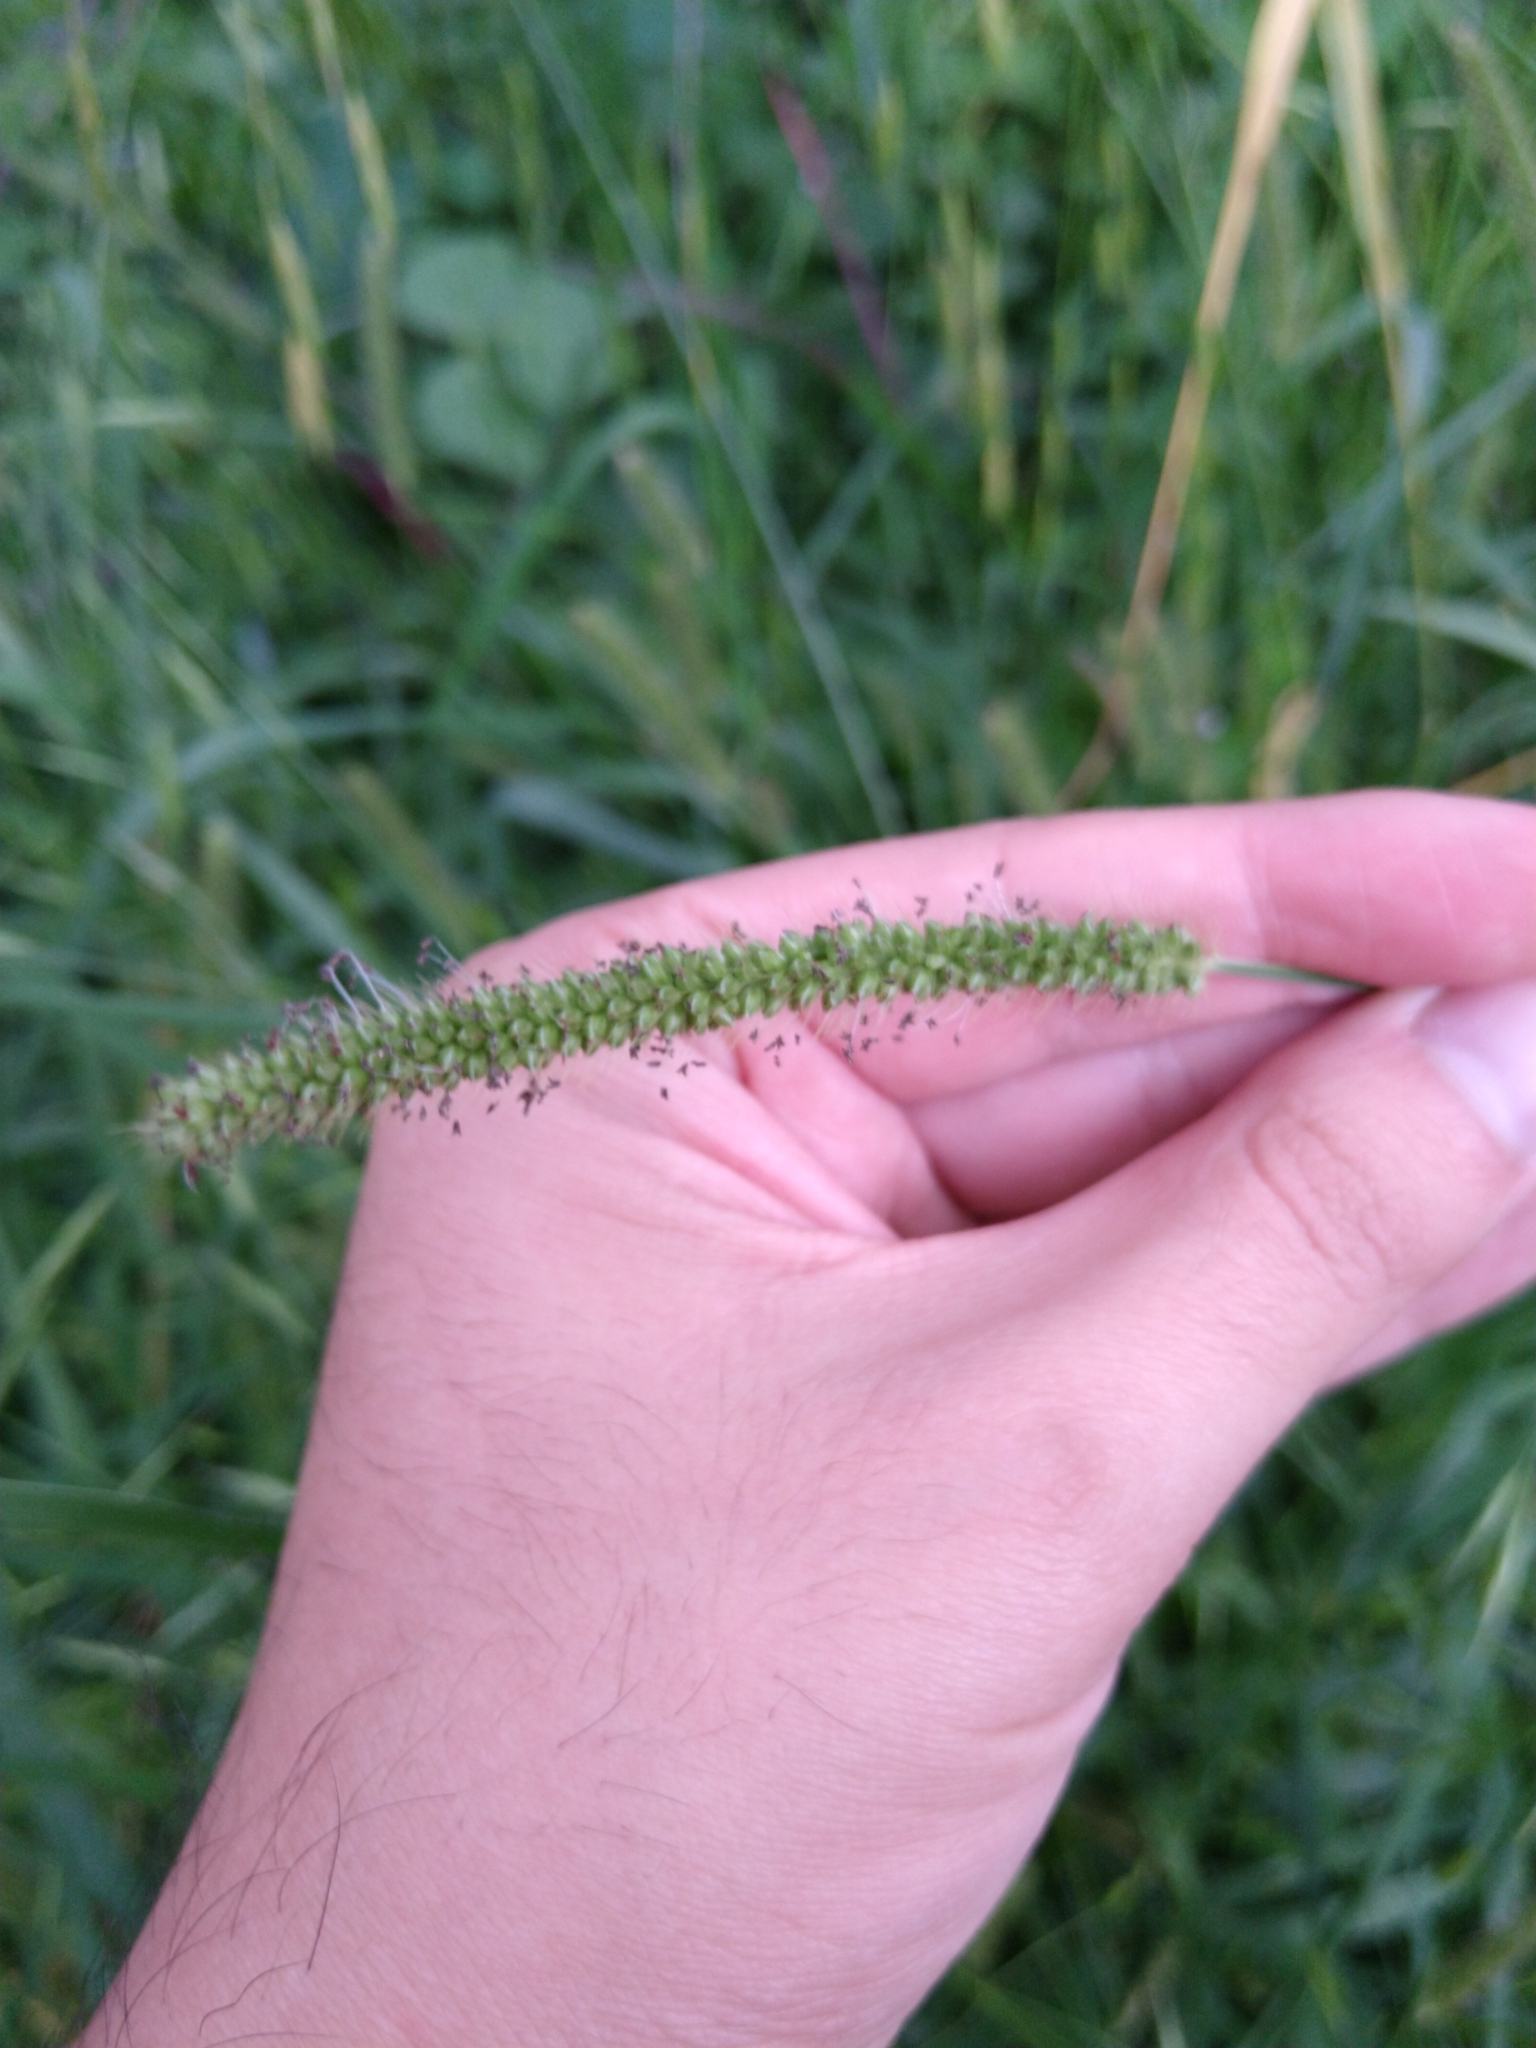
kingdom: Plantae
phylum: Tracheophyta
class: Liliopsida
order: Poales
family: Poaceae
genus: Setaria
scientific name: Setaria parviflora
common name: Knotroot bristle-grass
